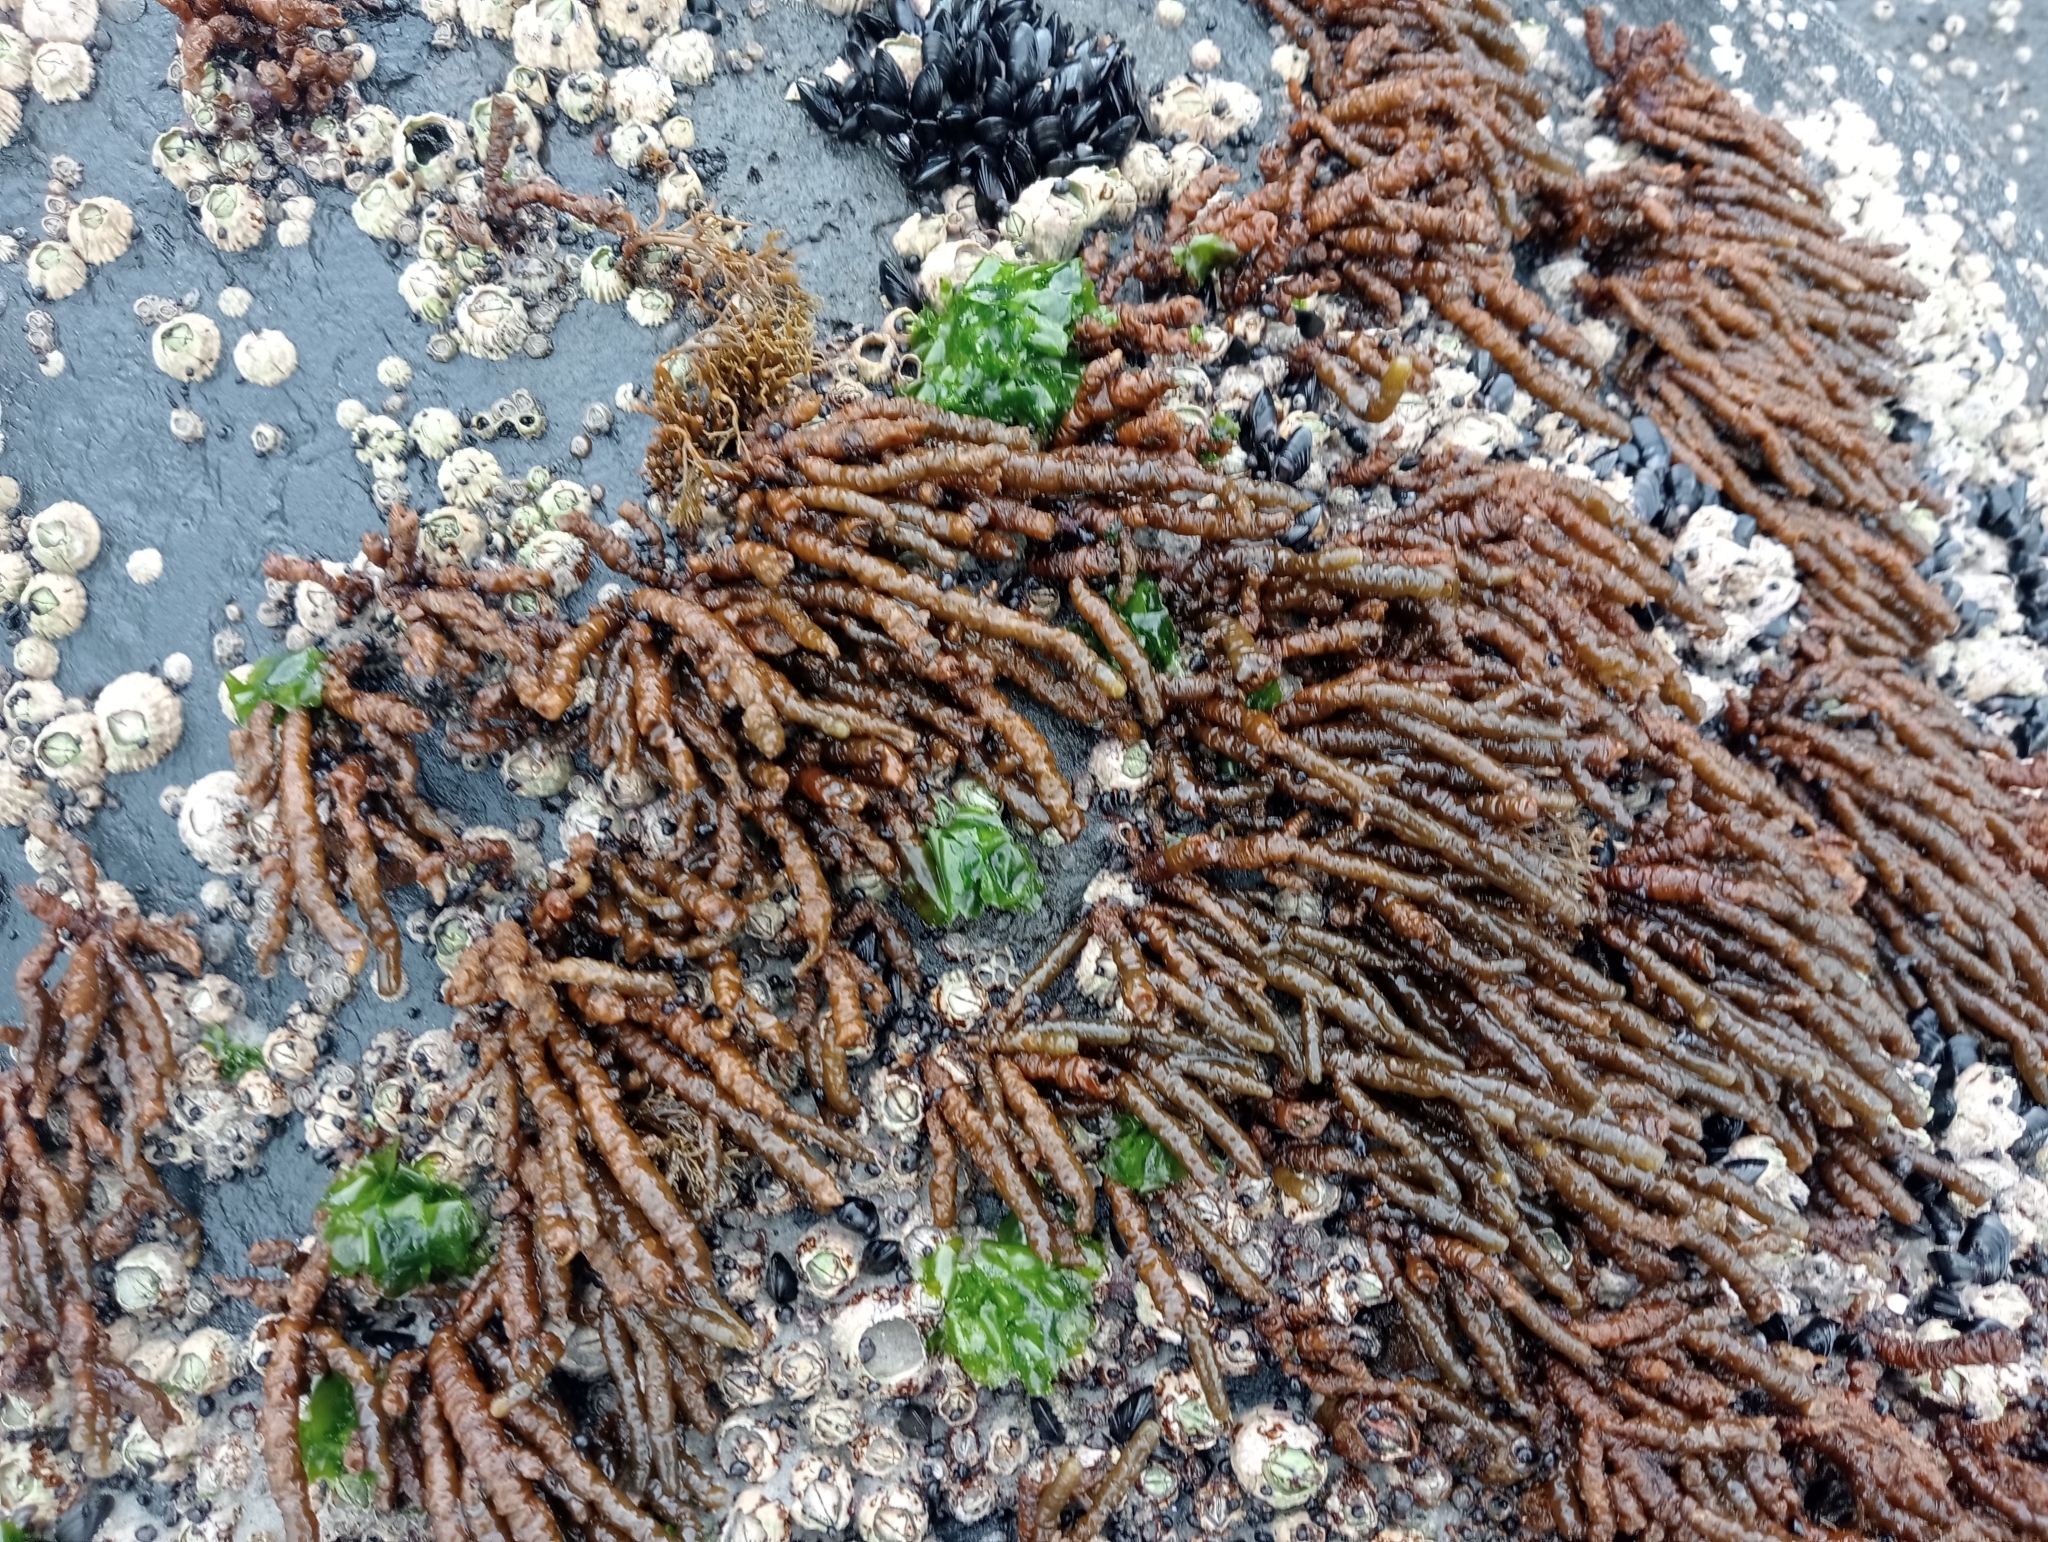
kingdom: Chromista
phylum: Ochrophyta
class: Phaeophyceae
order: Scytothamnales
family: Splachnidiaceae
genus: Splachnidium
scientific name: Splachnidium rugosum
